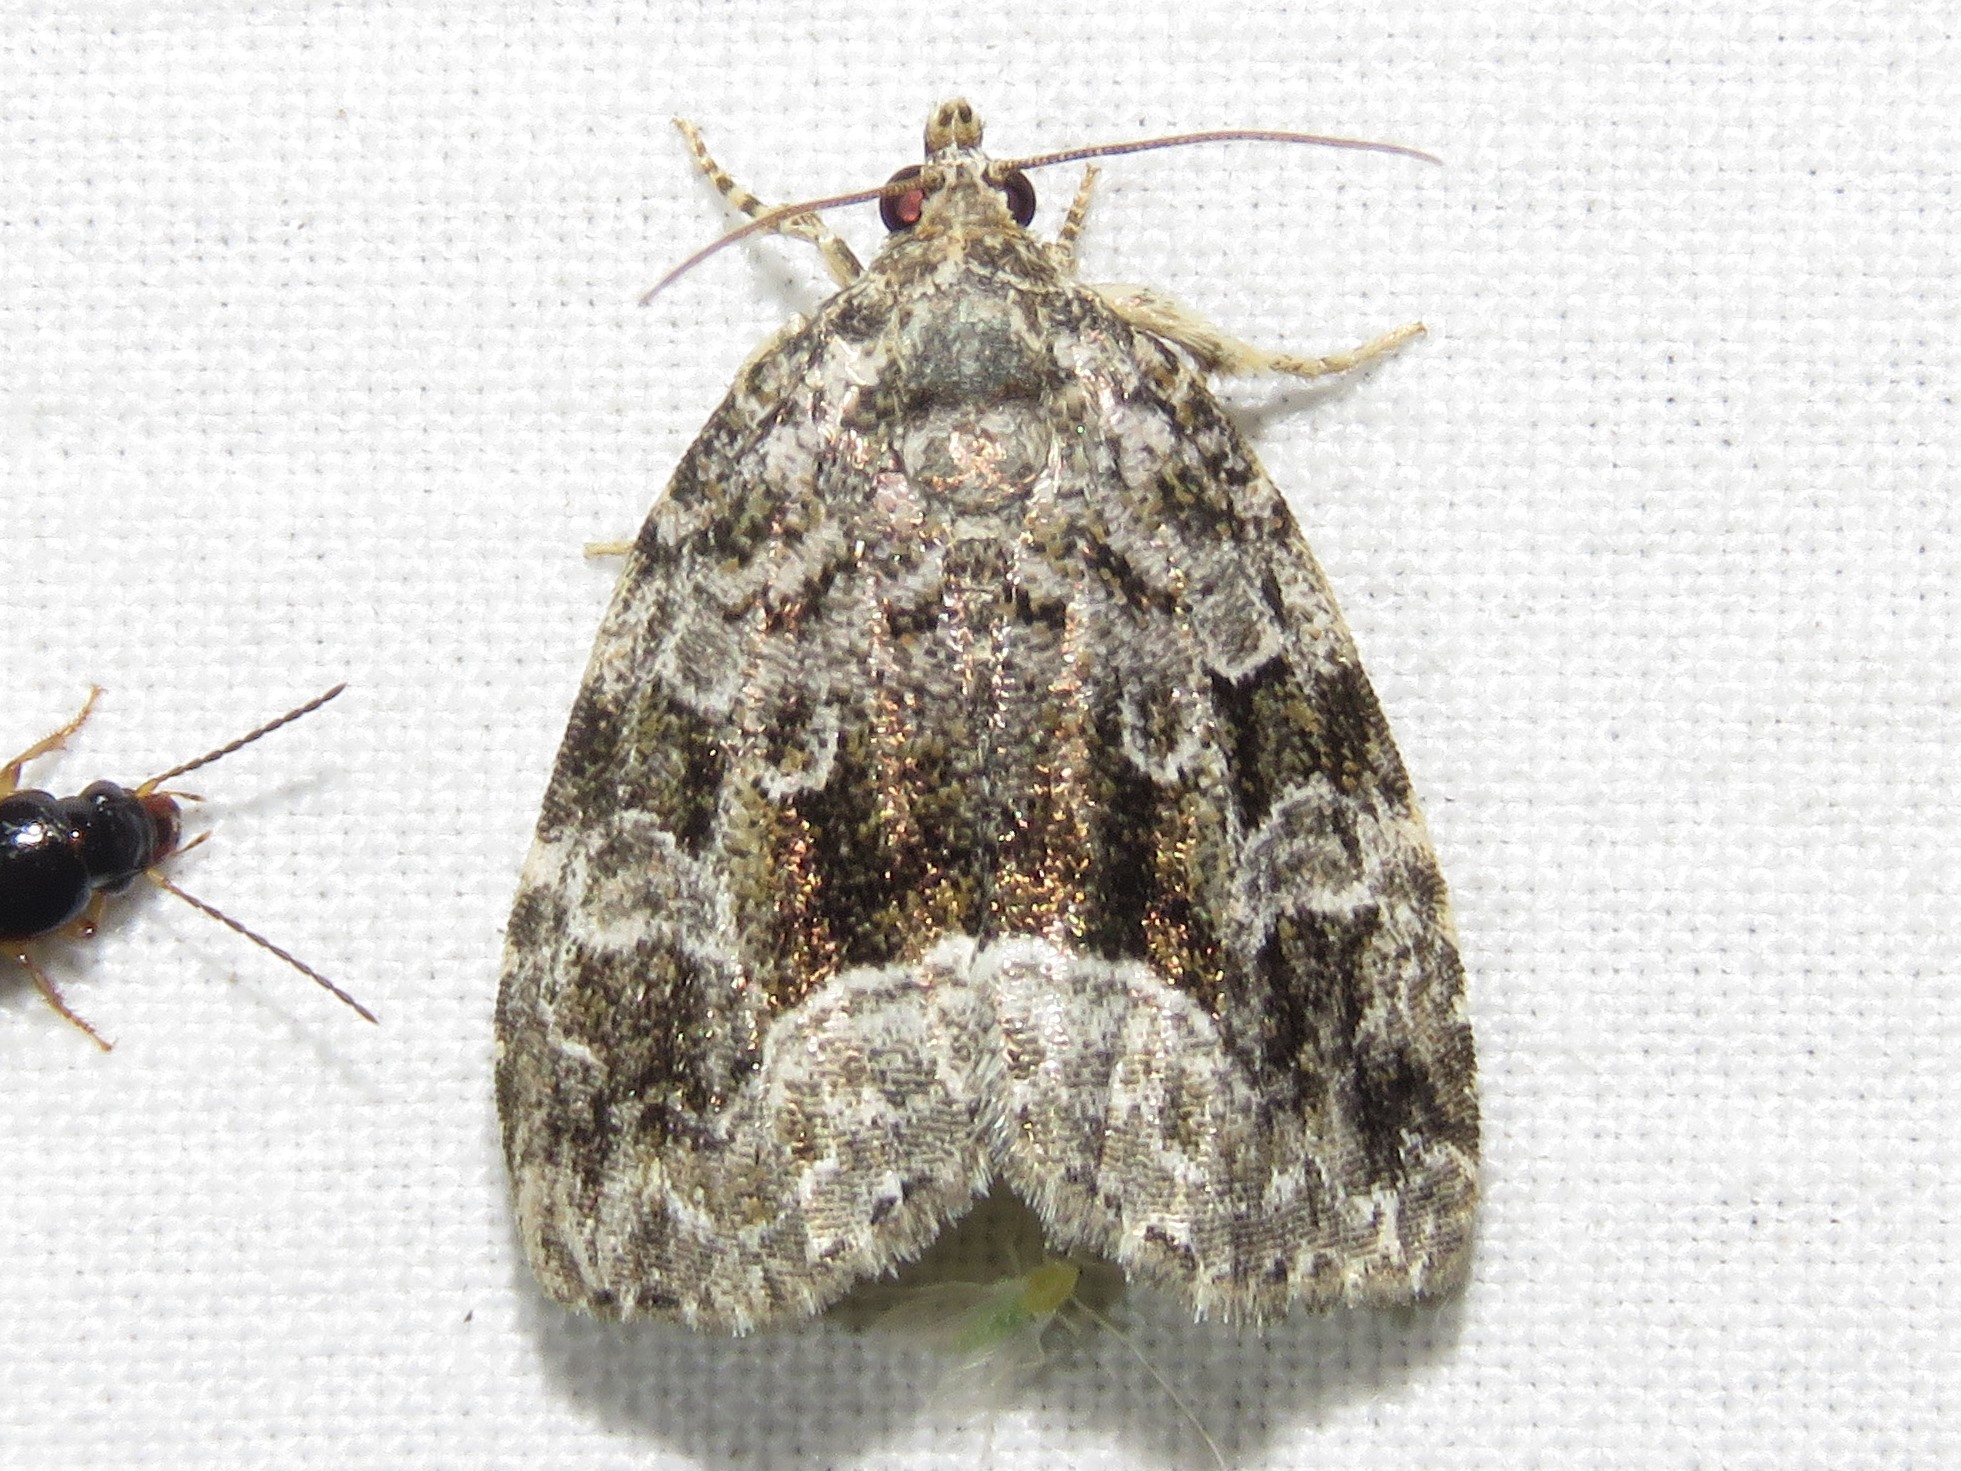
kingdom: Animalia
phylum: Arthropoda
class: Insecta
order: Lepidoptera
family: Noctuidae
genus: Protodeltote
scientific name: Protodeltote muscosula
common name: Large mossy glyph
